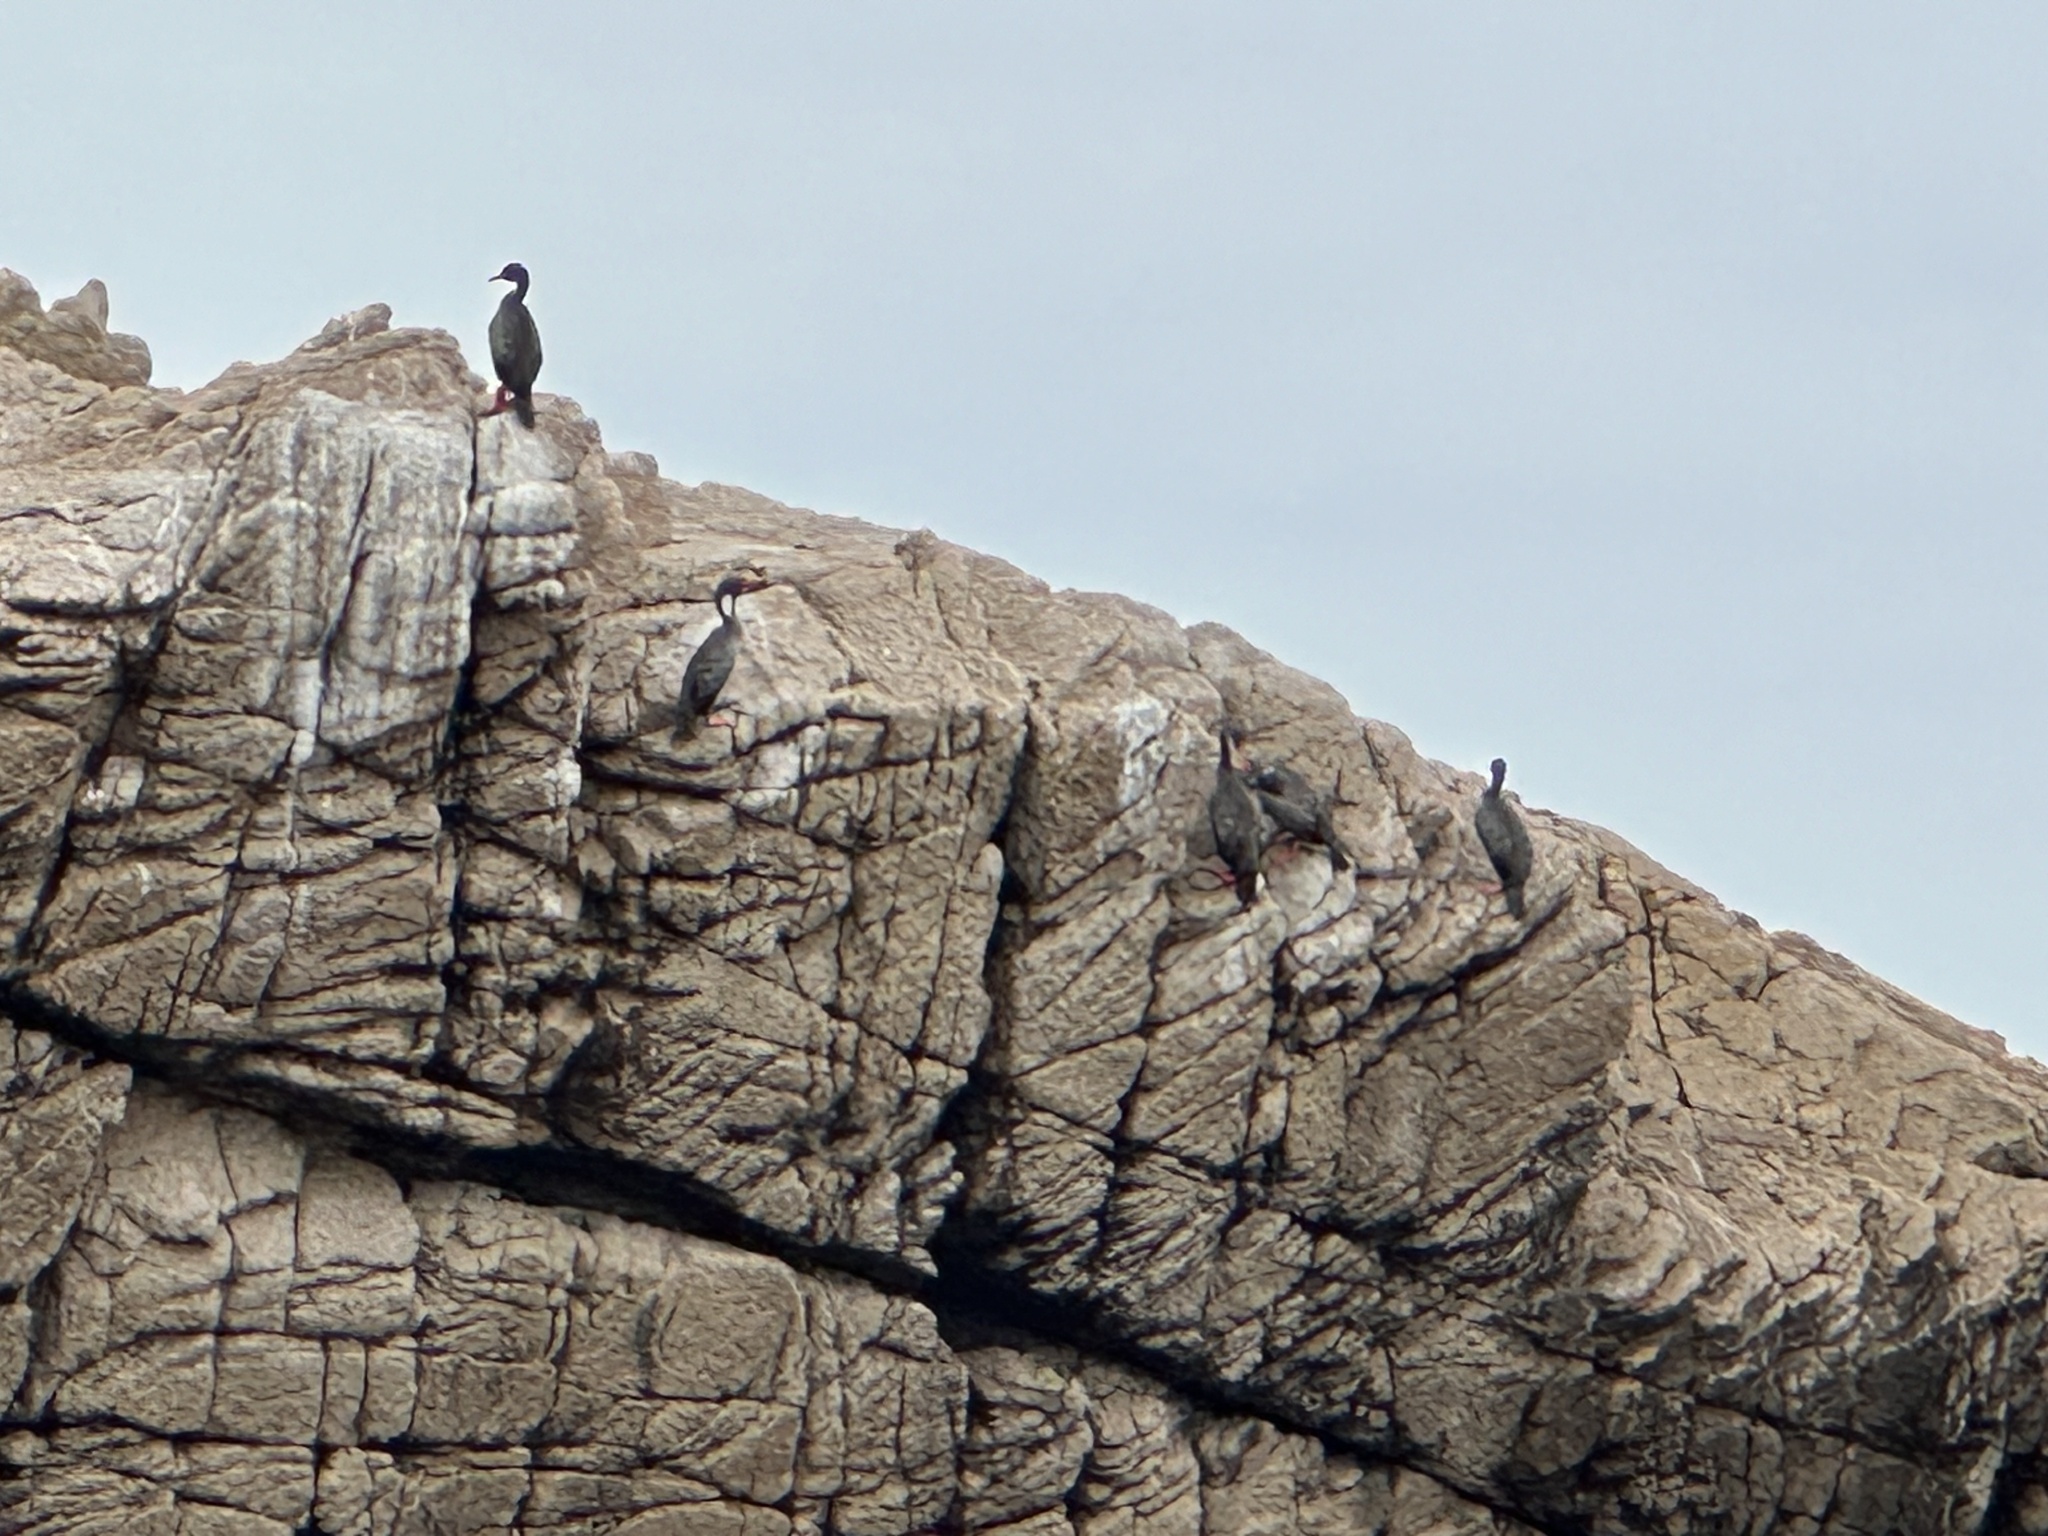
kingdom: Animalia
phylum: Chordata
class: Aves
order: Suliformes
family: Phalacrocoracidae
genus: Phalacrocorax
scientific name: Phalacrocorax gaimardi
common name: Red-legged cormorant
